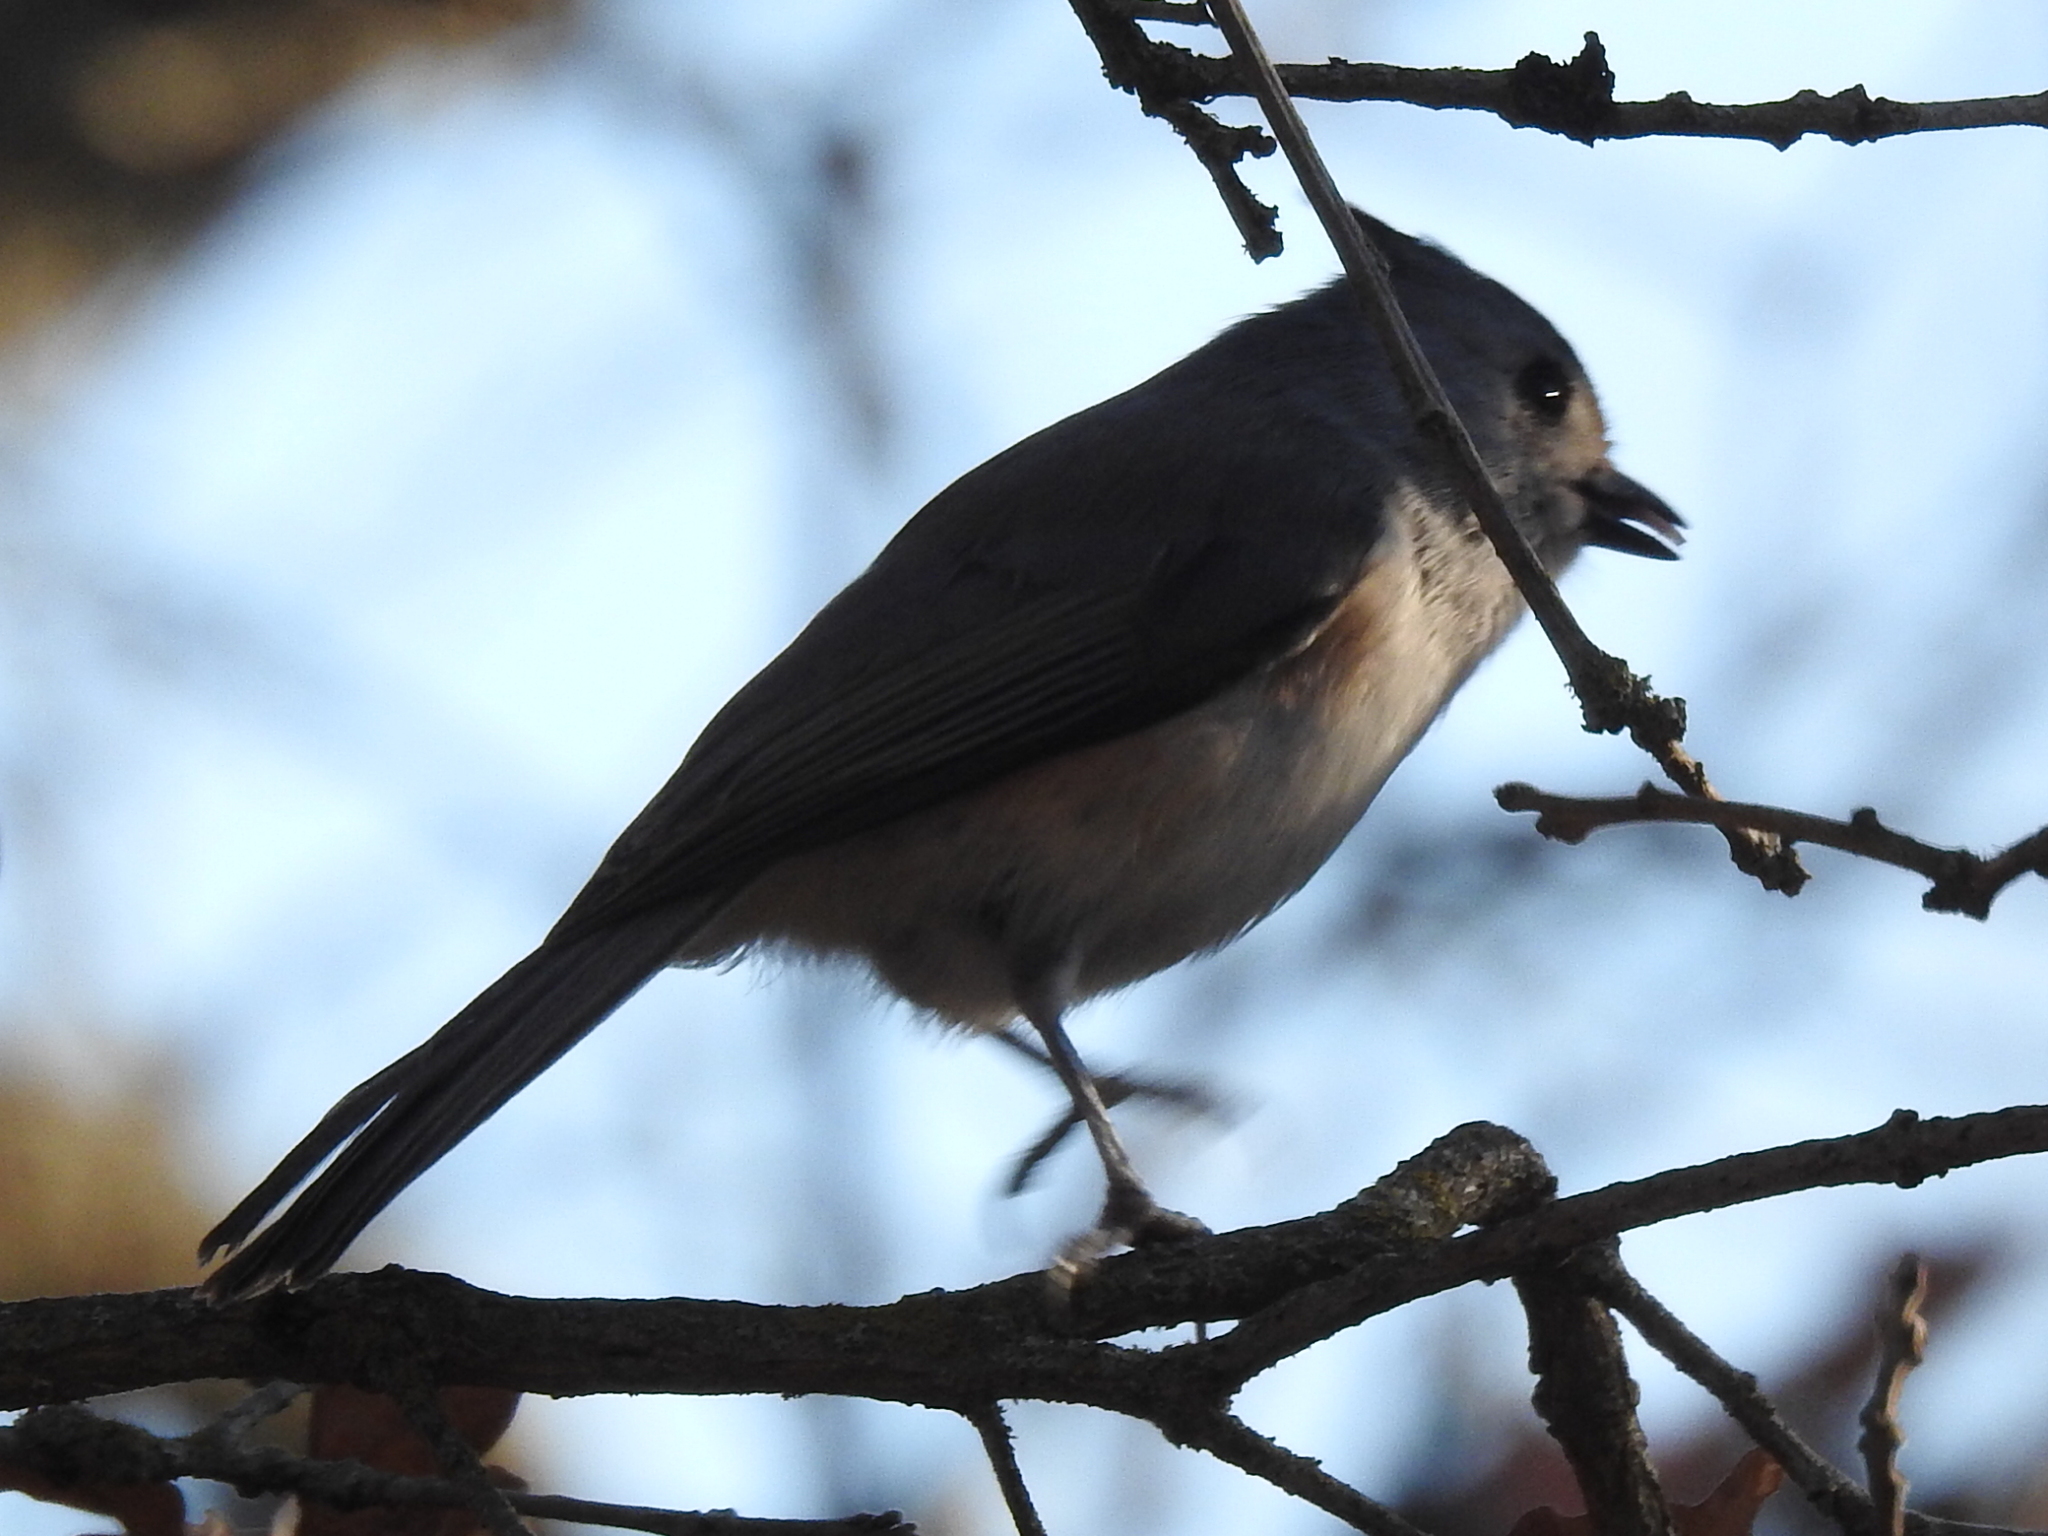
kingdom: Animalia
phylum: Chordata
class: Aves
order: Passeriformes
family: Paridae
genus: Baeolophus
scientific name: Baeolophus
